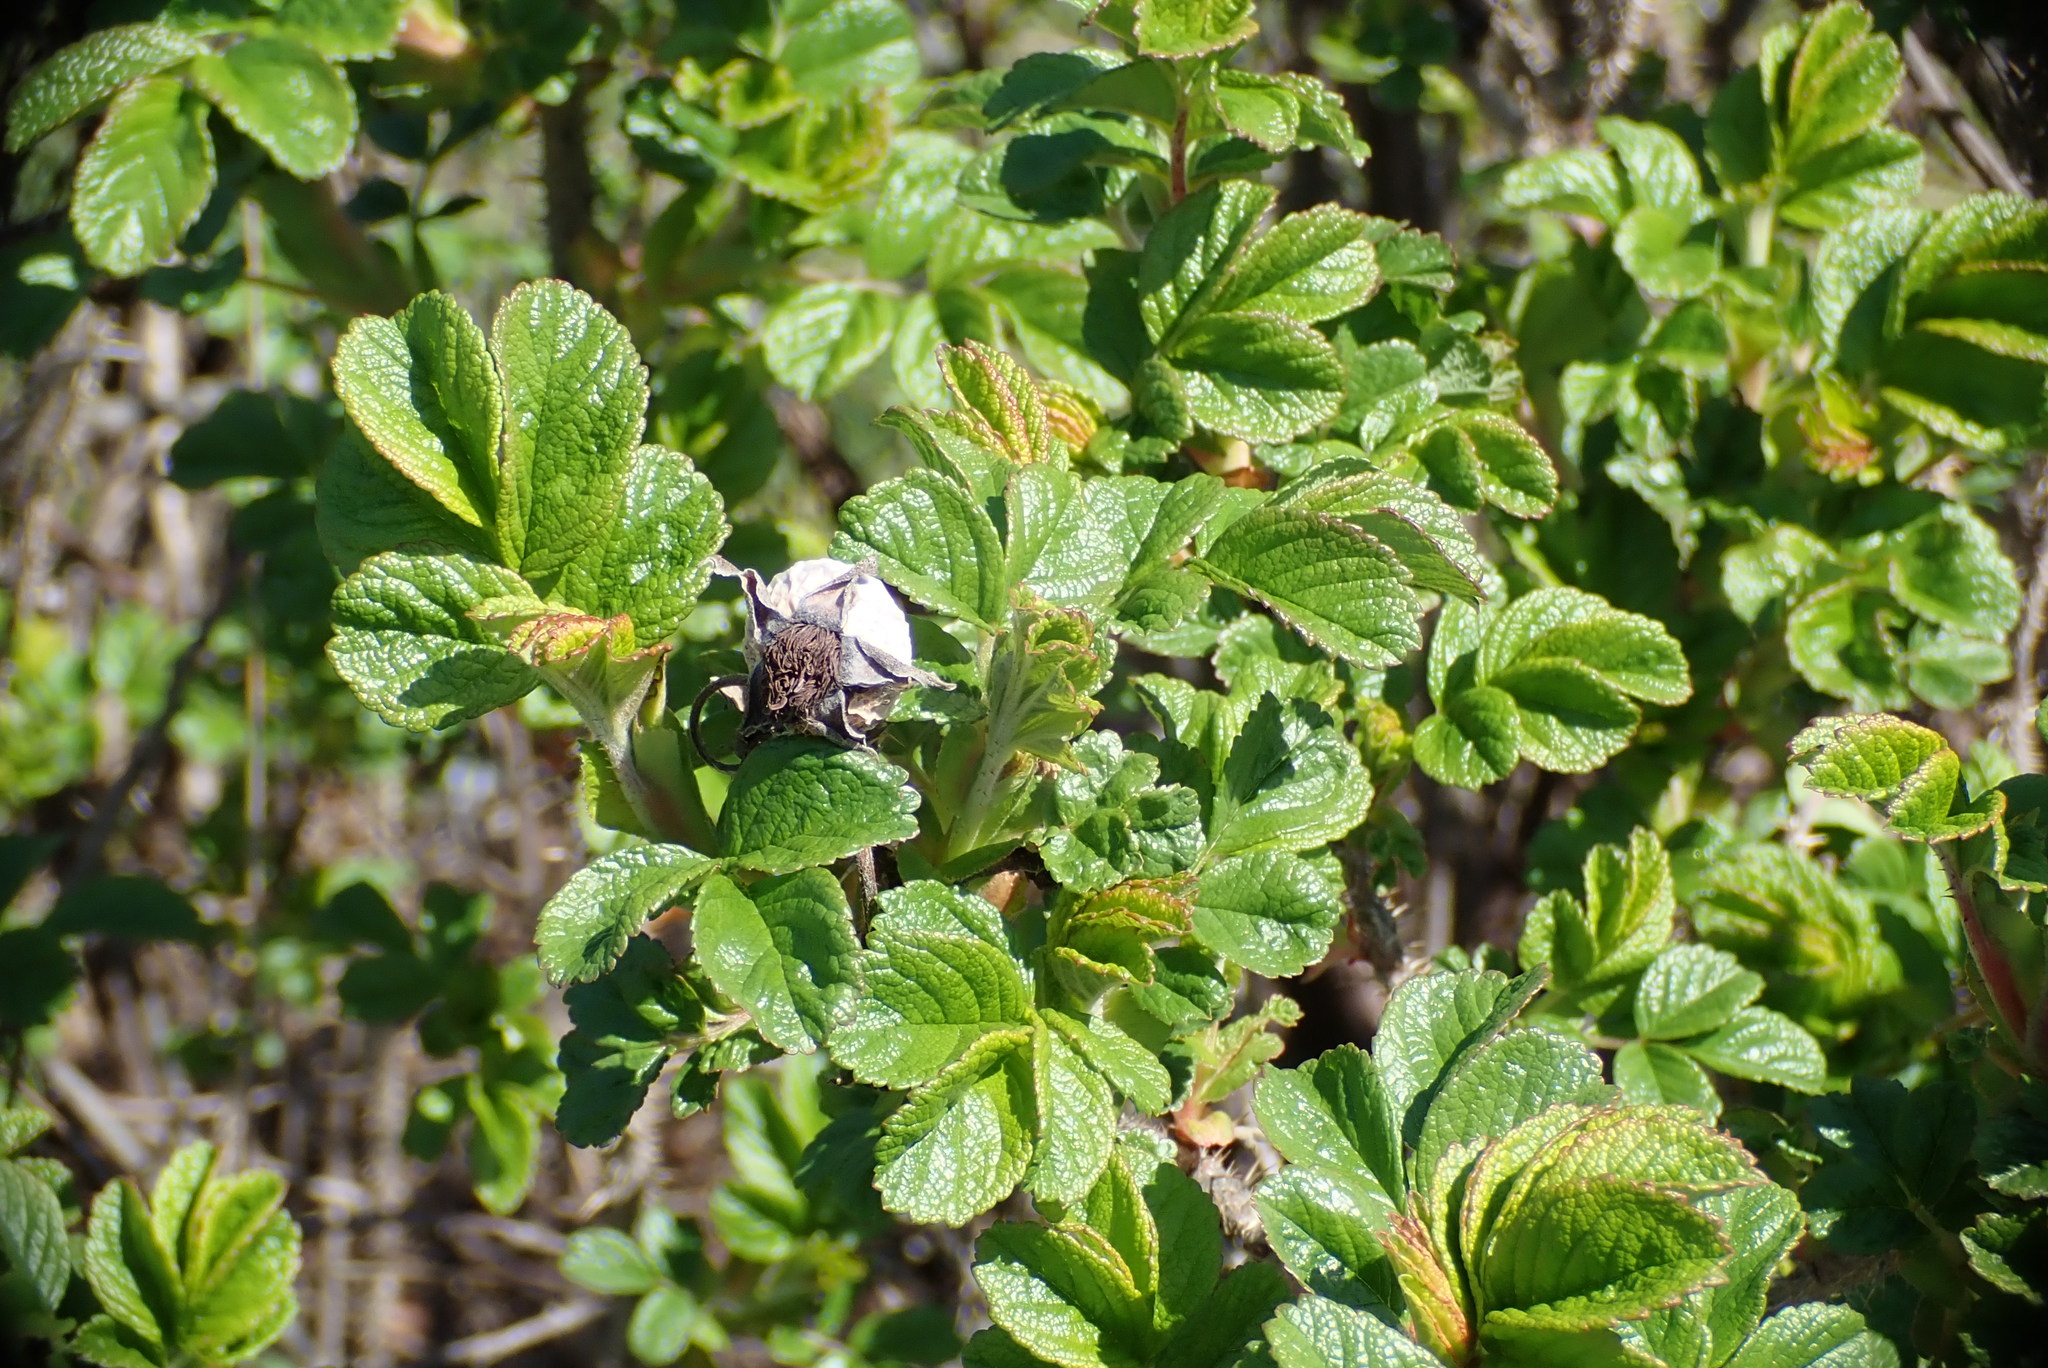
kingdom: Plantae
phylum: Tracheophyta
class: Magnoliopsida
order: Rosales
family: Rosaceae
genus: Rosa
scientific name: Rosa rugosa
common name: Japanese rose
